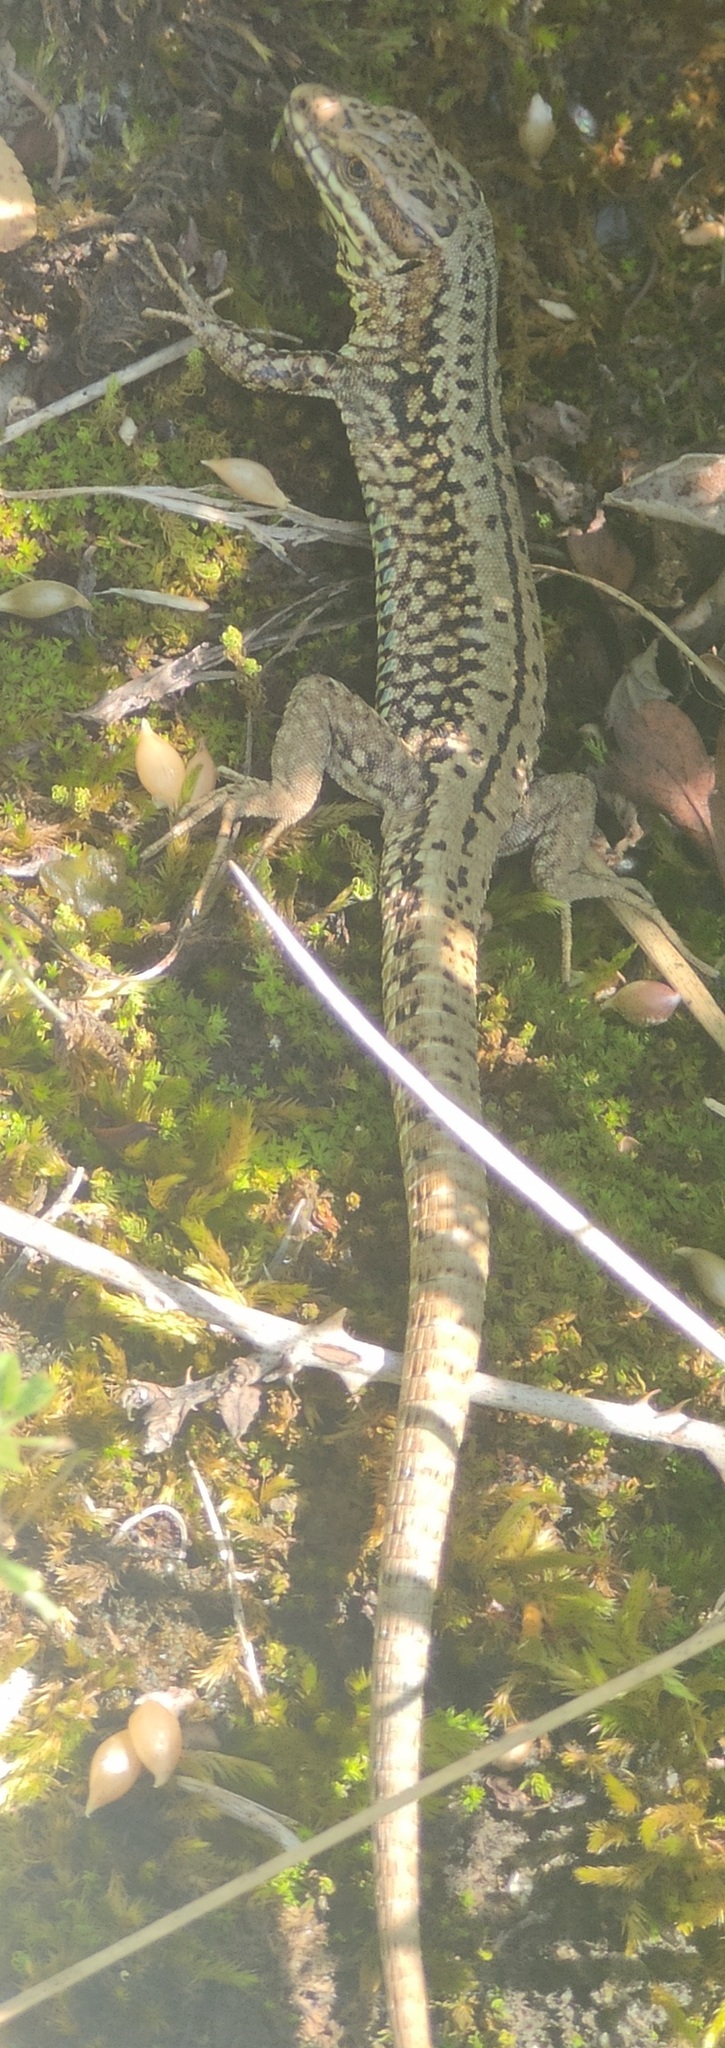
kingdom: Animalia
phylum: Chordata
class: Squamata
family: Lacertidae
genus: Podarcis
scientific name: Podarcis muralis
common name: Common wall lizard
